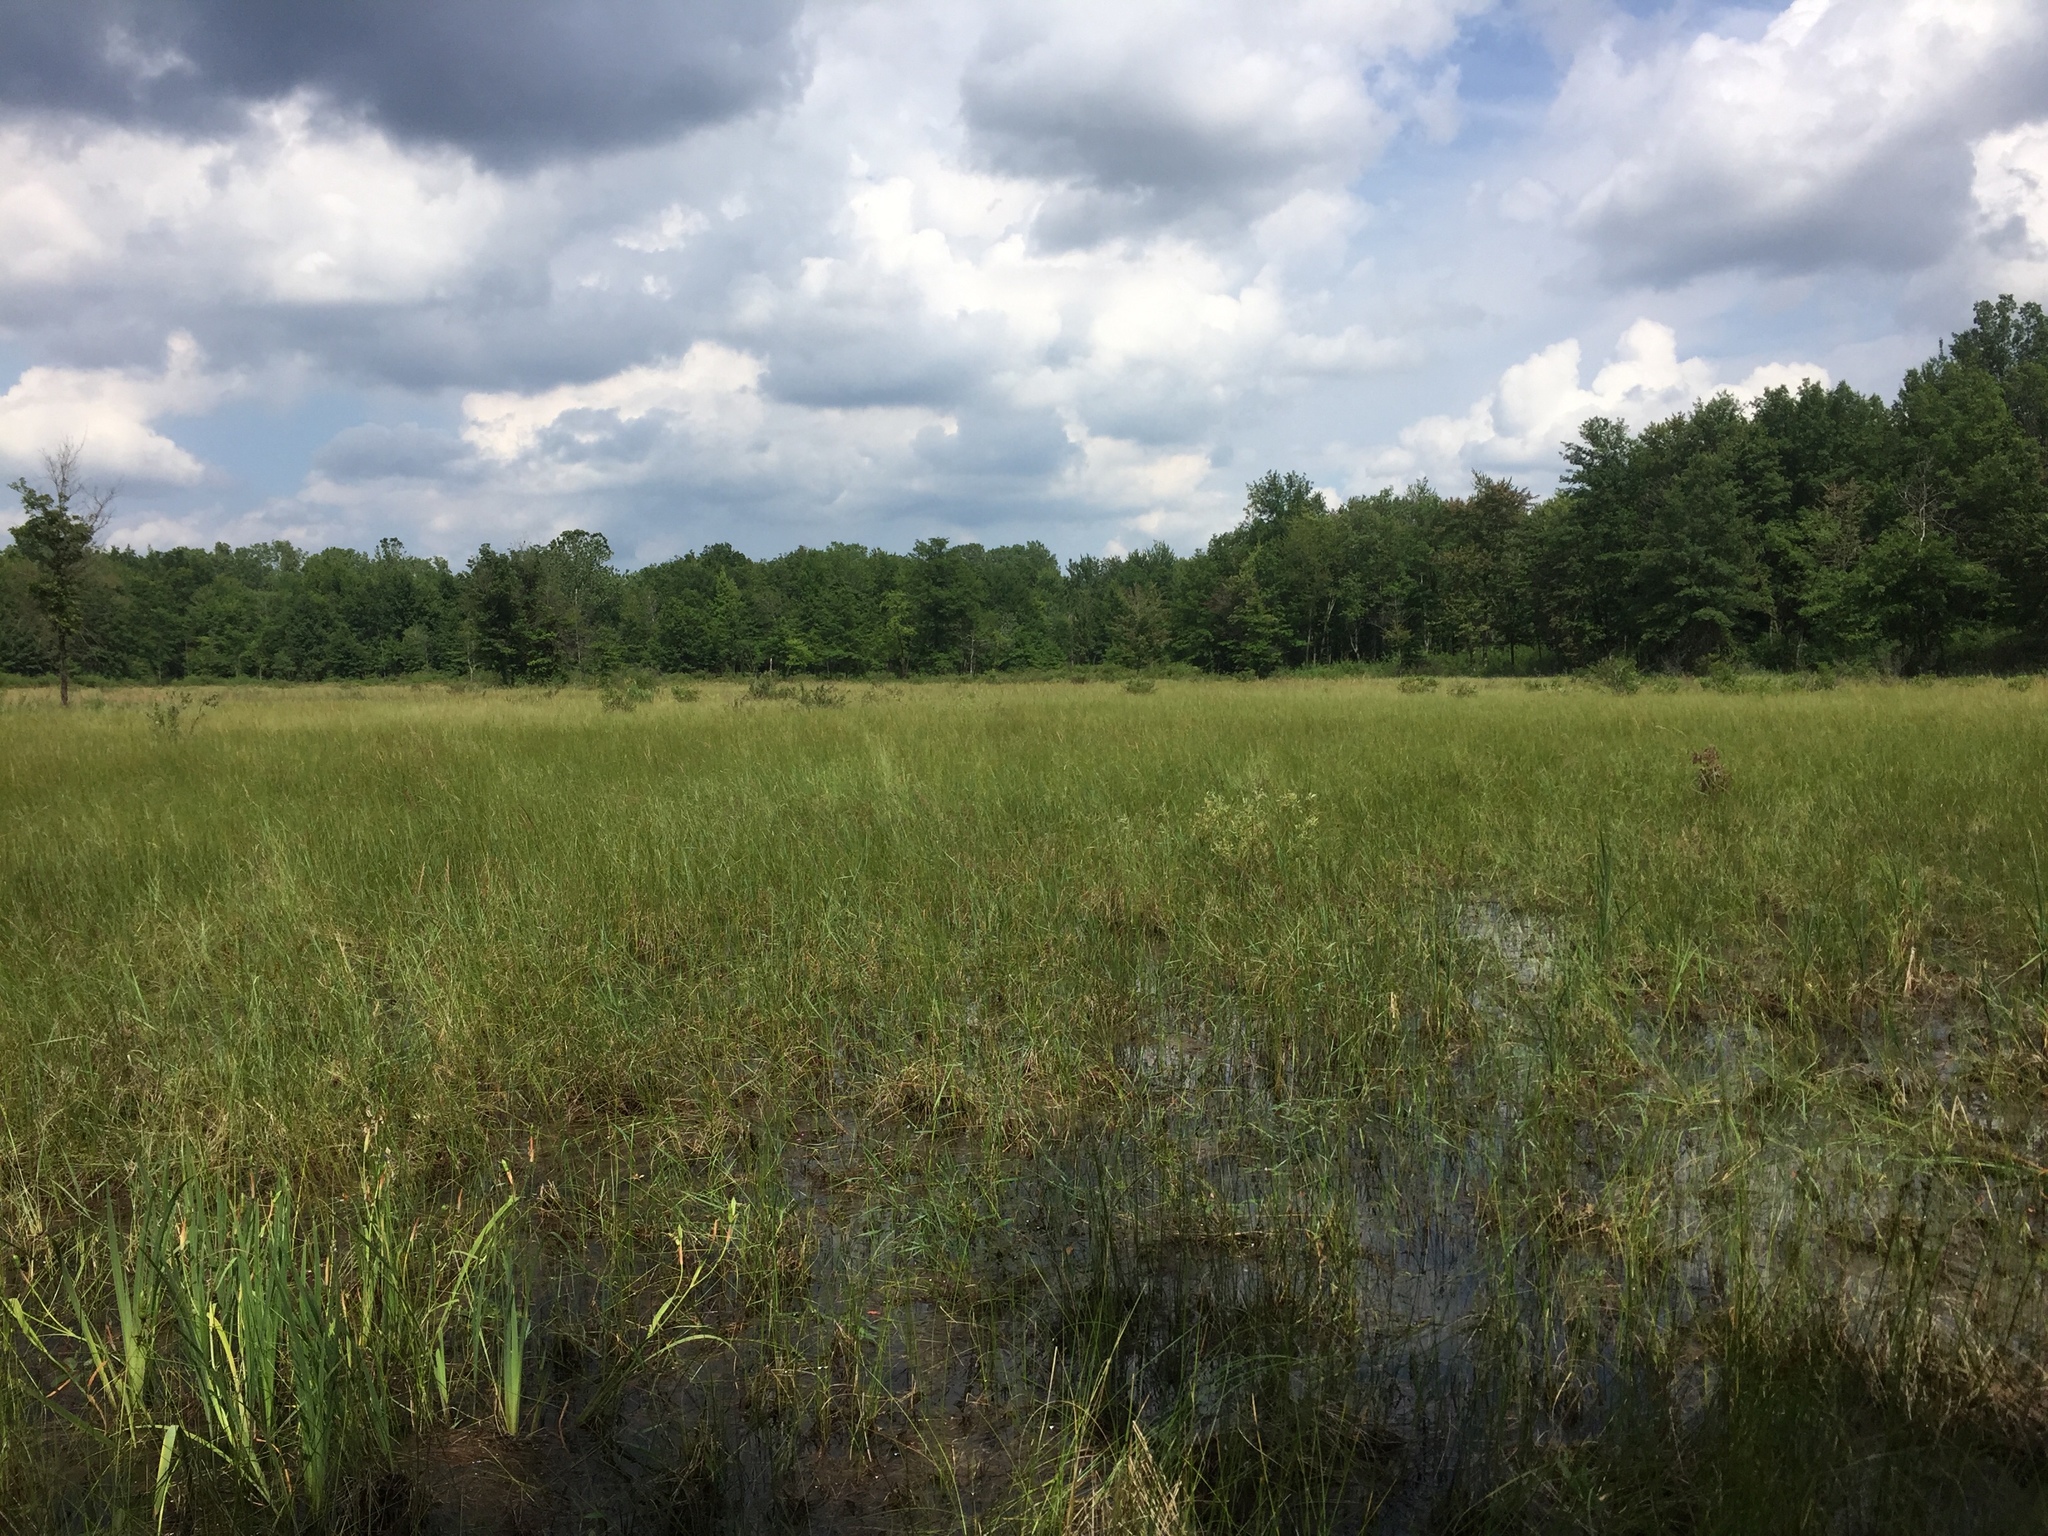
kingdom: Plantae
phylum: Tracheophyta
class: Liliopsida
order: Poales
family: Cyperaceae
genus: Carex
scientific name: Carex cryptolepis
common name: Northeastern sedge
